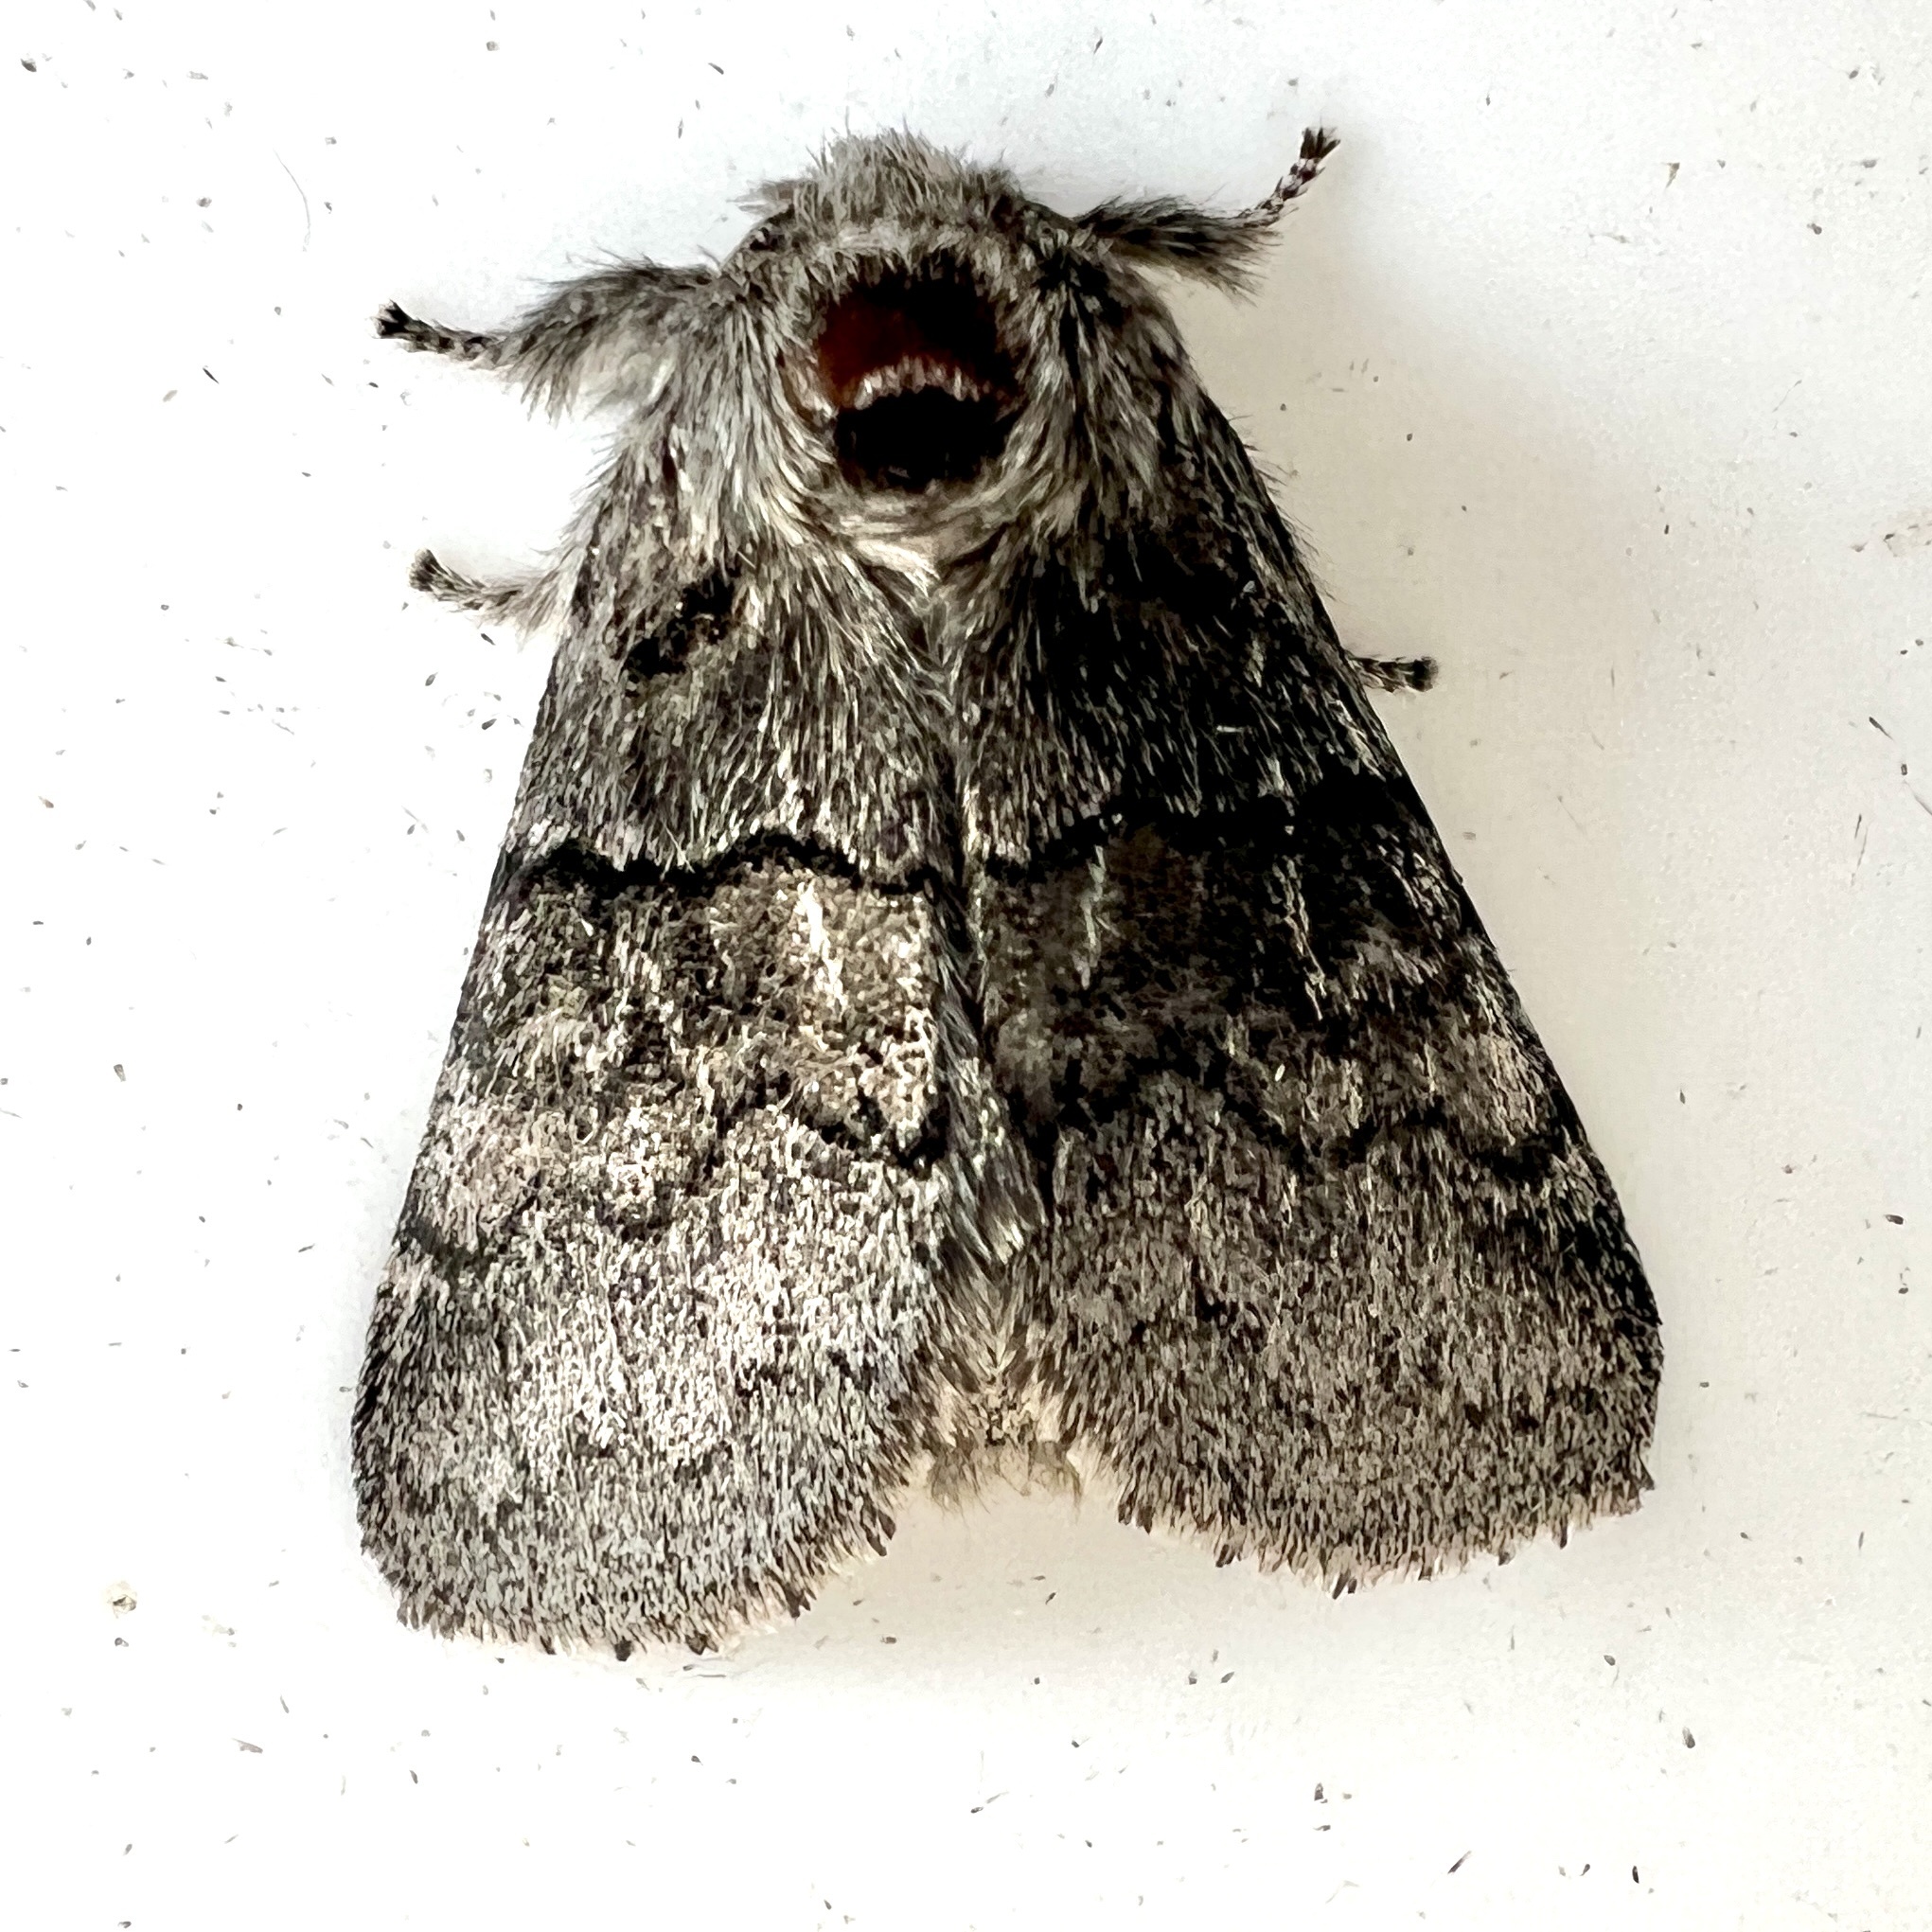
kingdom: Animalia
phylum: Arthropoda
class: Insecta
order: Lepidoptera
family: Notodontidae
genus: Gluphisia
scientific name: Gluphisia septentrionis
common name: Common gluphisia
